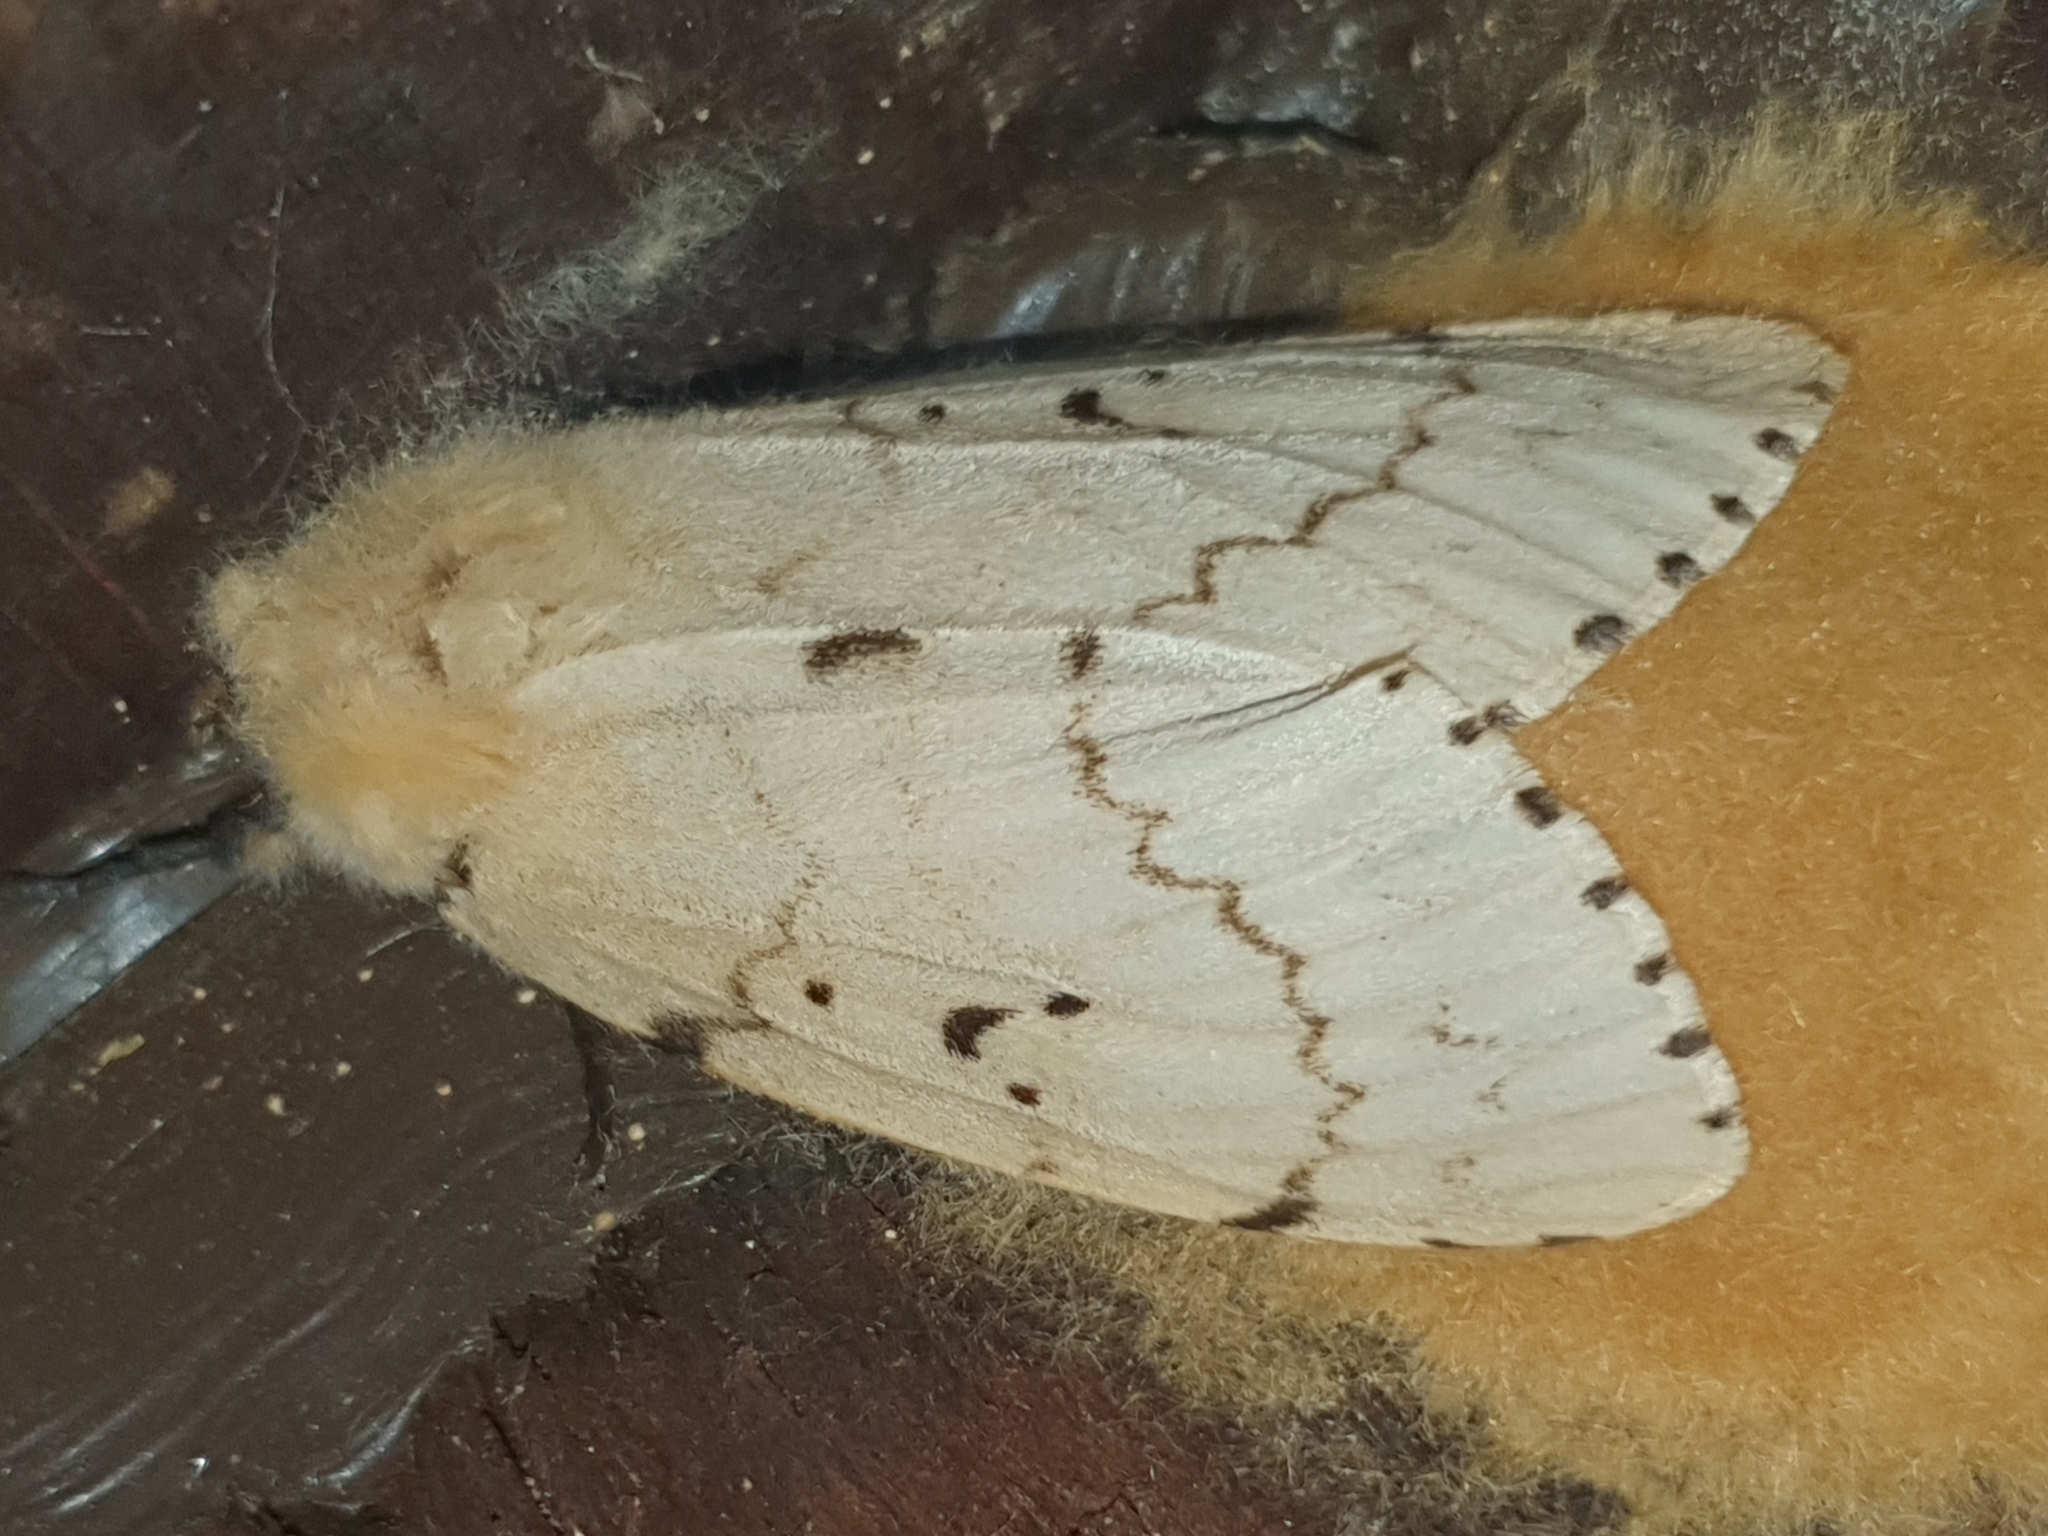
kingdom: Animalia
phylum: Arthropoda
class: Insecta
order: Lepidoptera
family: Erebidae
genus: Lymantria
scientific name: Lymantria dispar
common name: Gypsy moth
